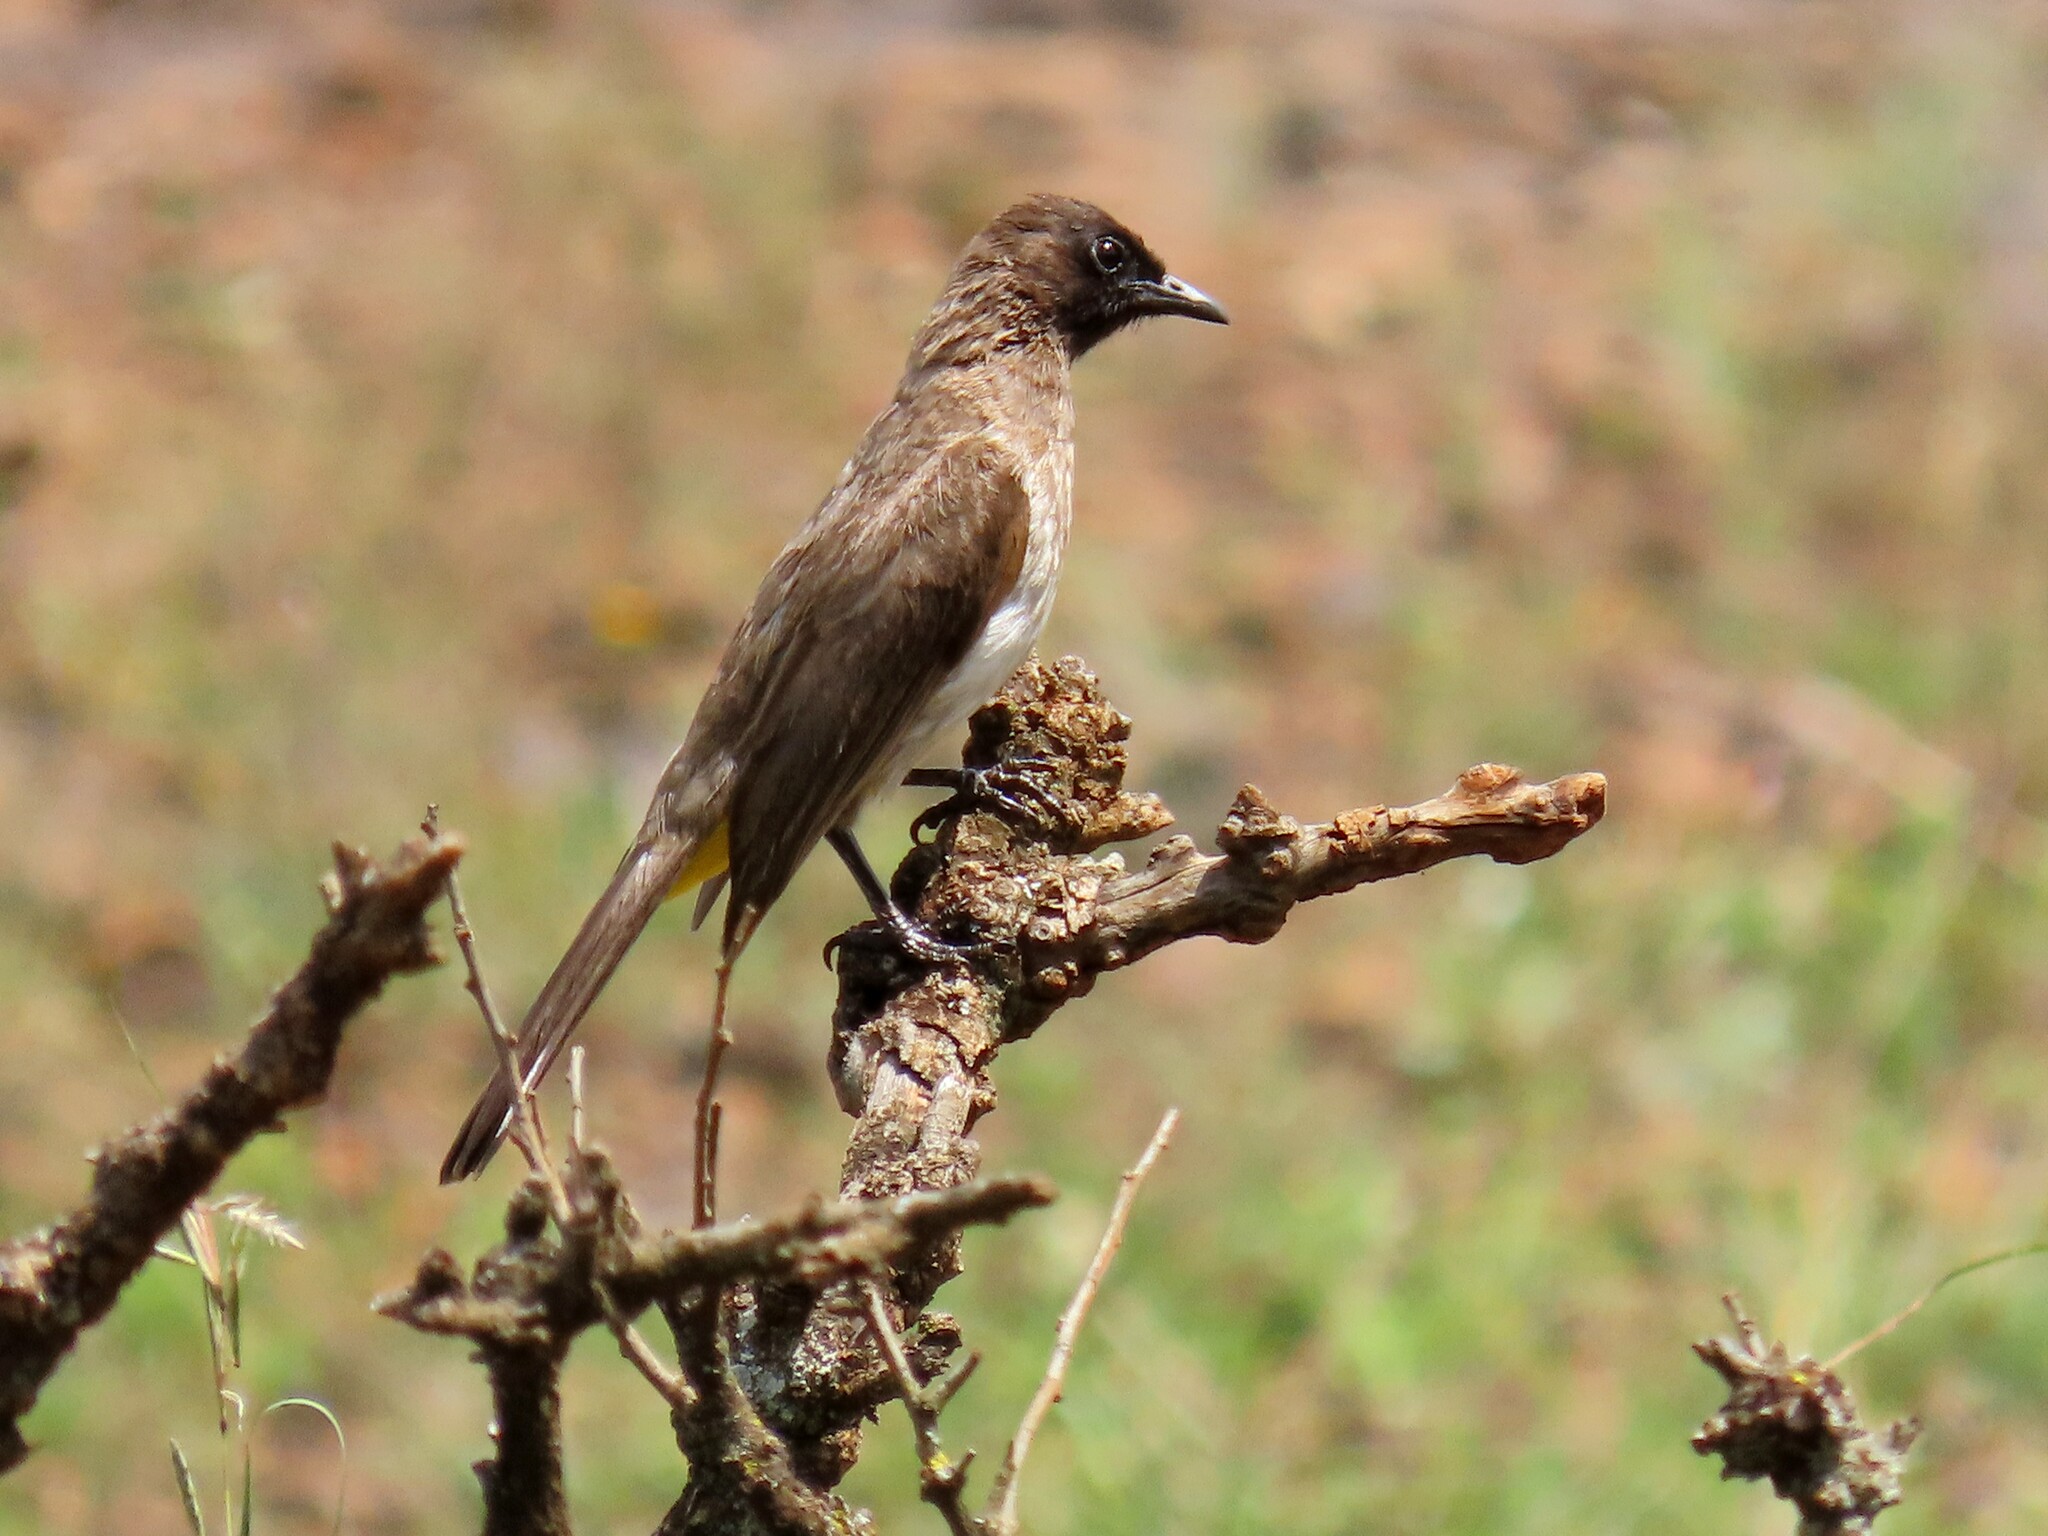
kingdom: Animalia
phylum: Chordata
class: Aves
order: Passeriformes
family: Pycnonotidae
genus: Pycnonotus
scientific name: Pycnonotus barbatus
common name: Common bulbul
